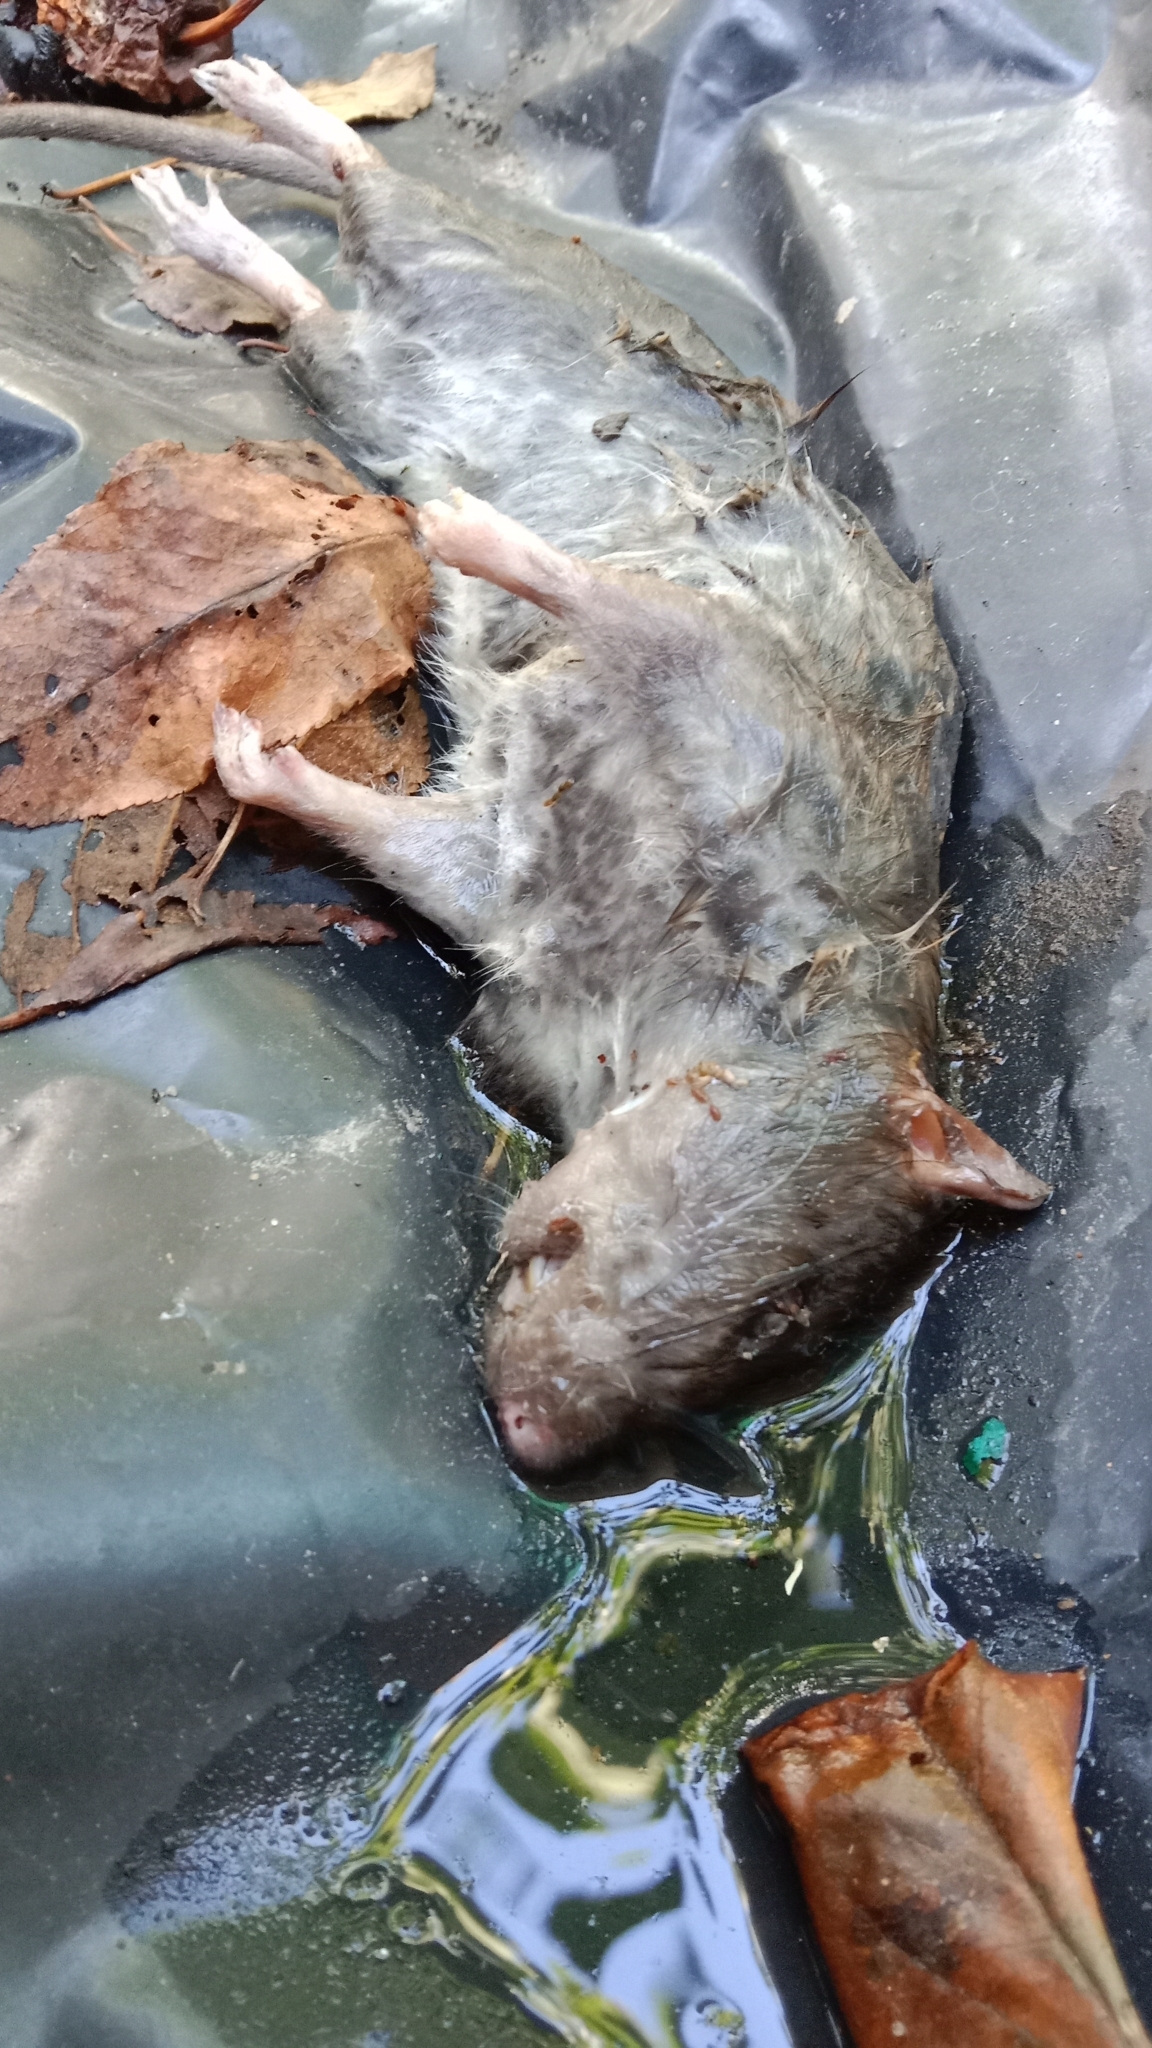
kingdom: Animalia
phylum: Chordata
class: Mammalia
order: Rodentia
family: Muridae
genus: Rattus
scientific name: Rattus norvegicus
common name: Brown rat
